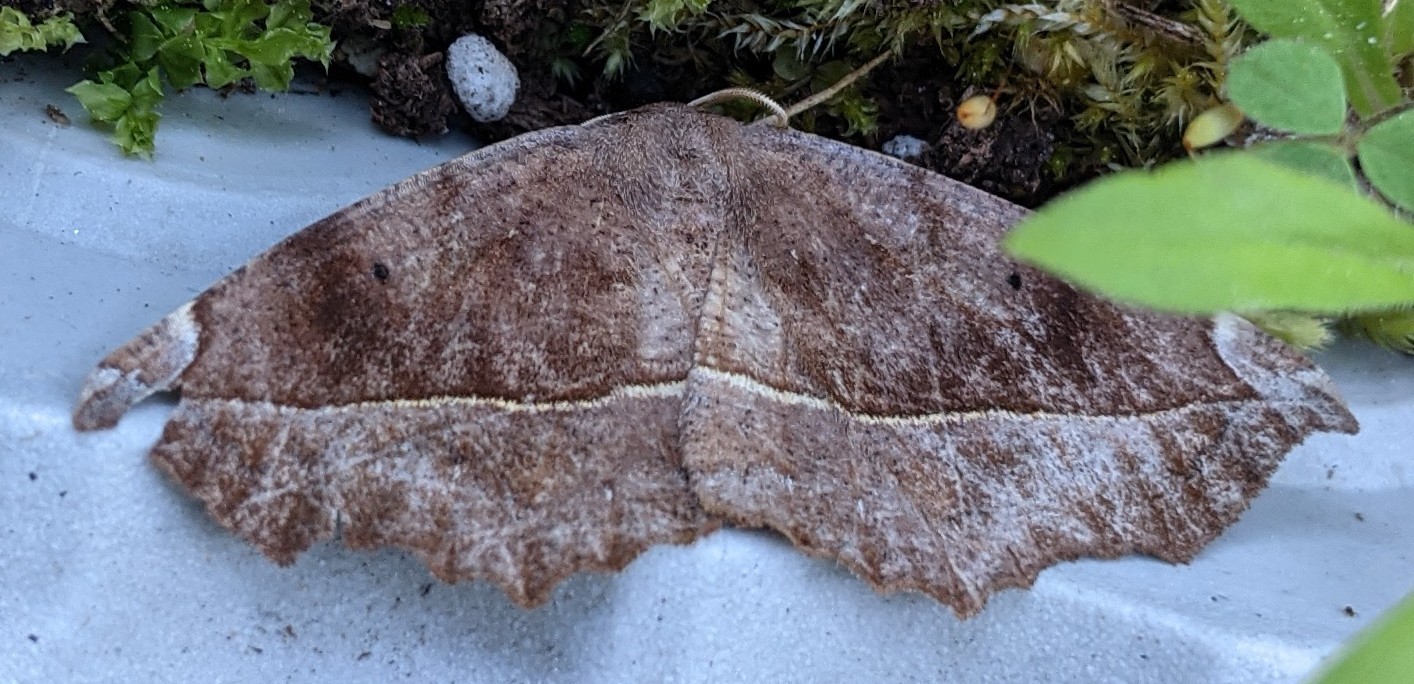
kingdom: Animalia
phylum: Arthropoda
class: Insecta
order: Lepidoptera
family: Geometridae
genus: Eutrapela
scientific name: Eutrapela clemataria
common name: Curved-toothed geometer
